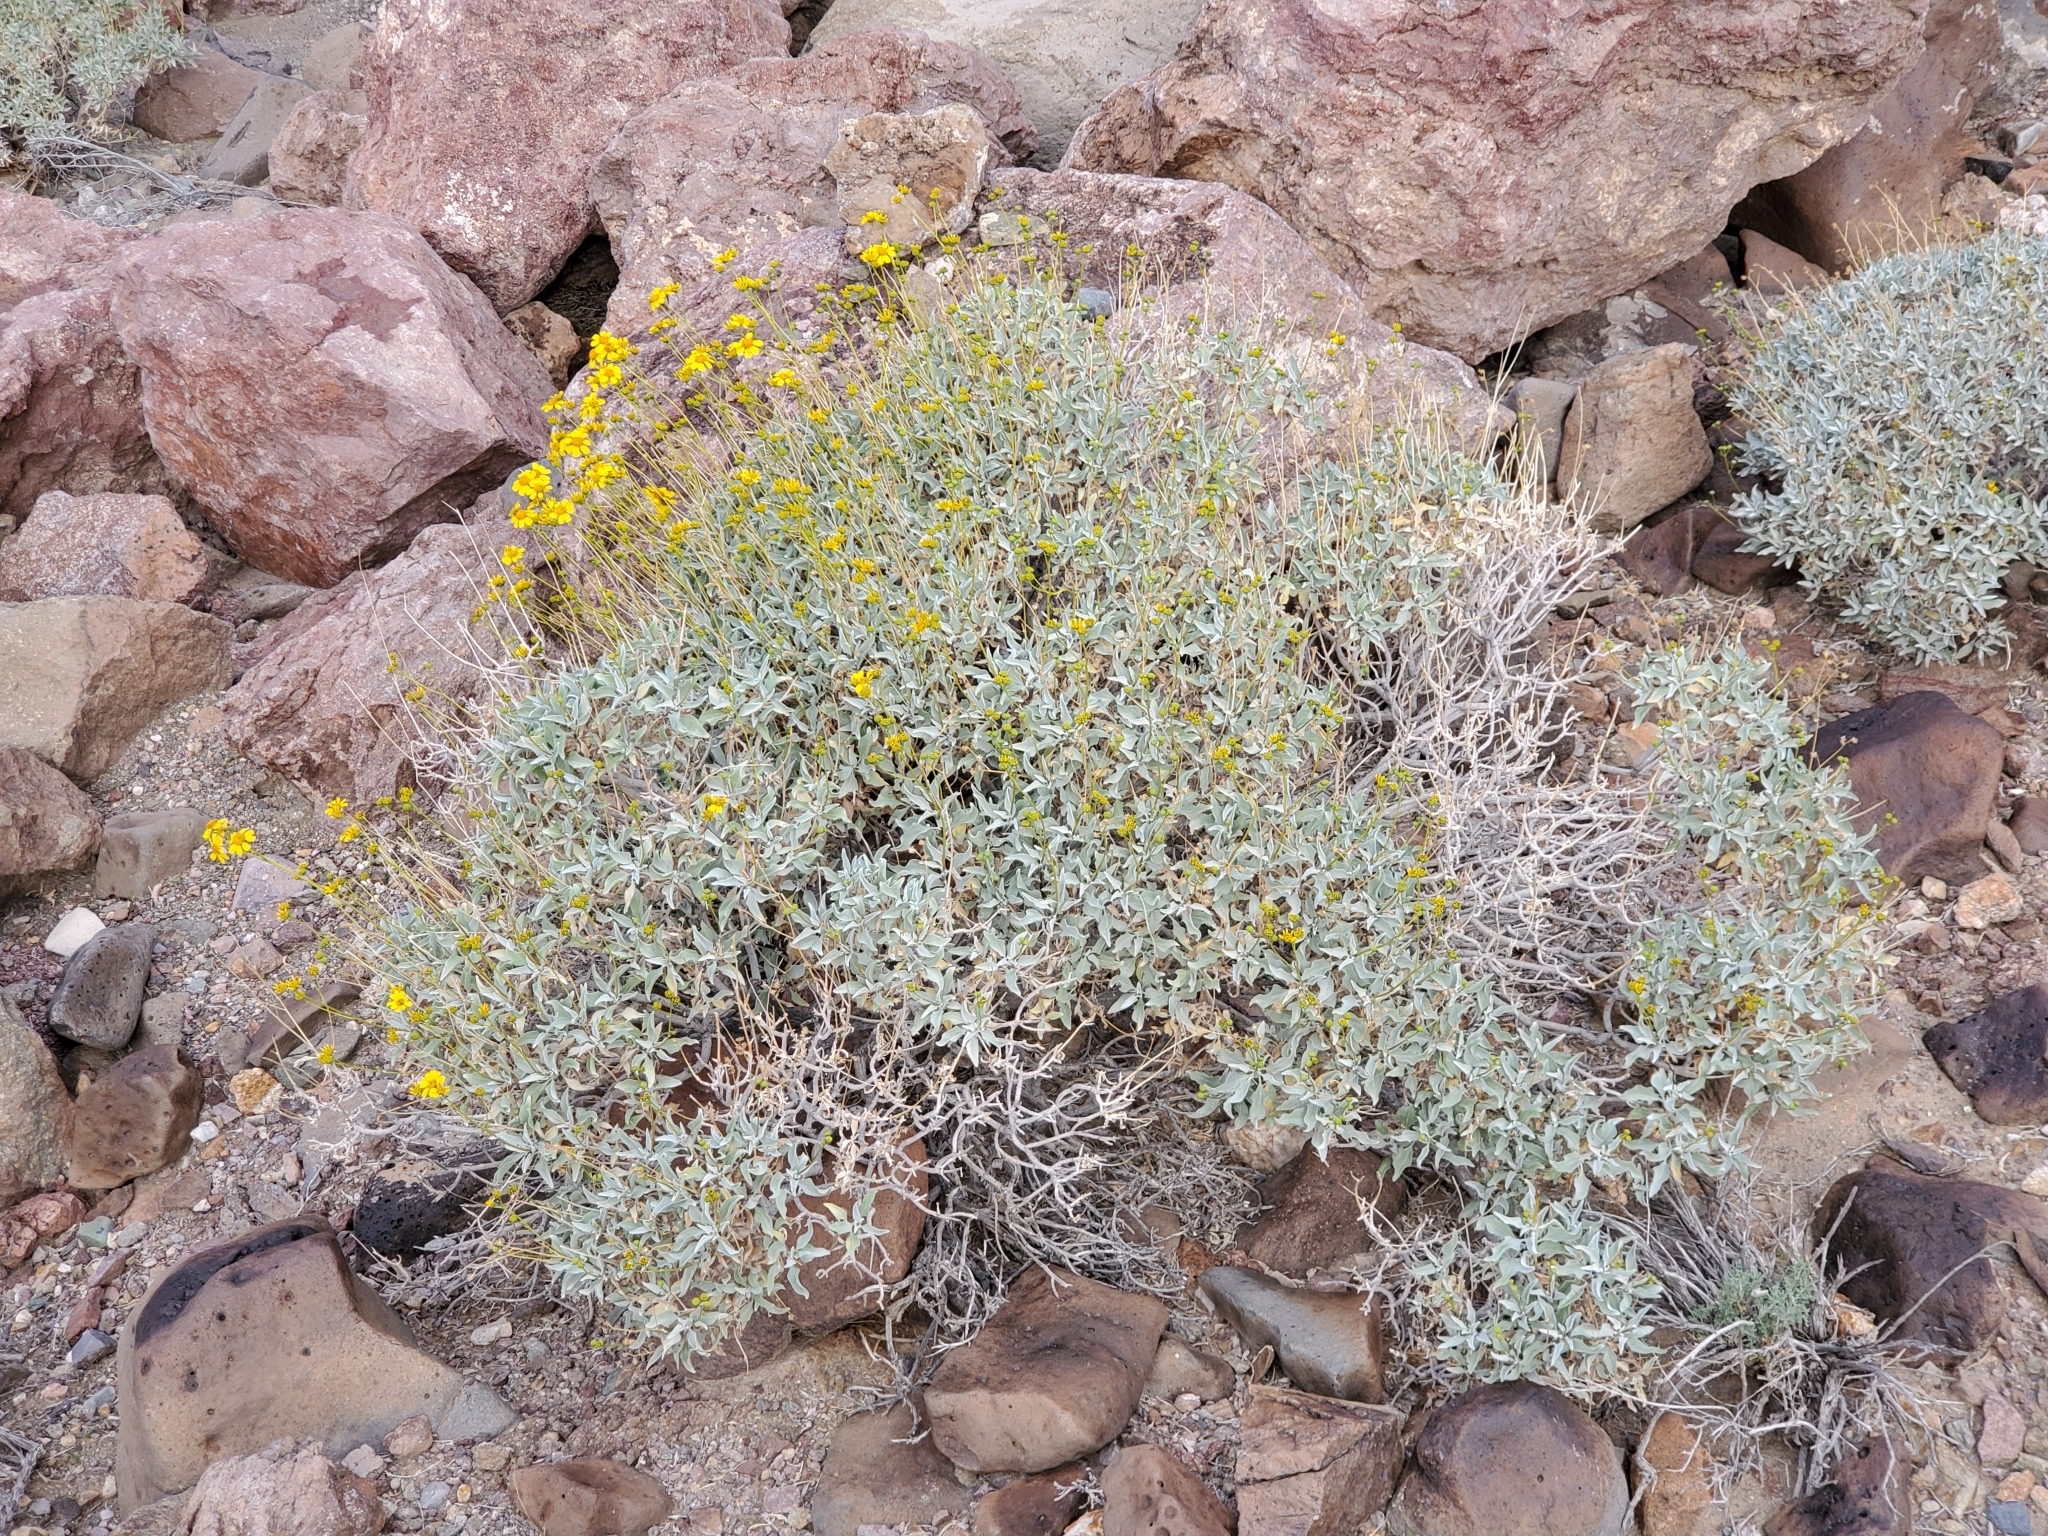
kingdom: Plantae
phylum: Tracheophyta
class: Magnoliopsida
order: Asterales
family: Asteraceae
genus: Encelia
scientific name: Encelia farinosa
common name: Brittlebush
